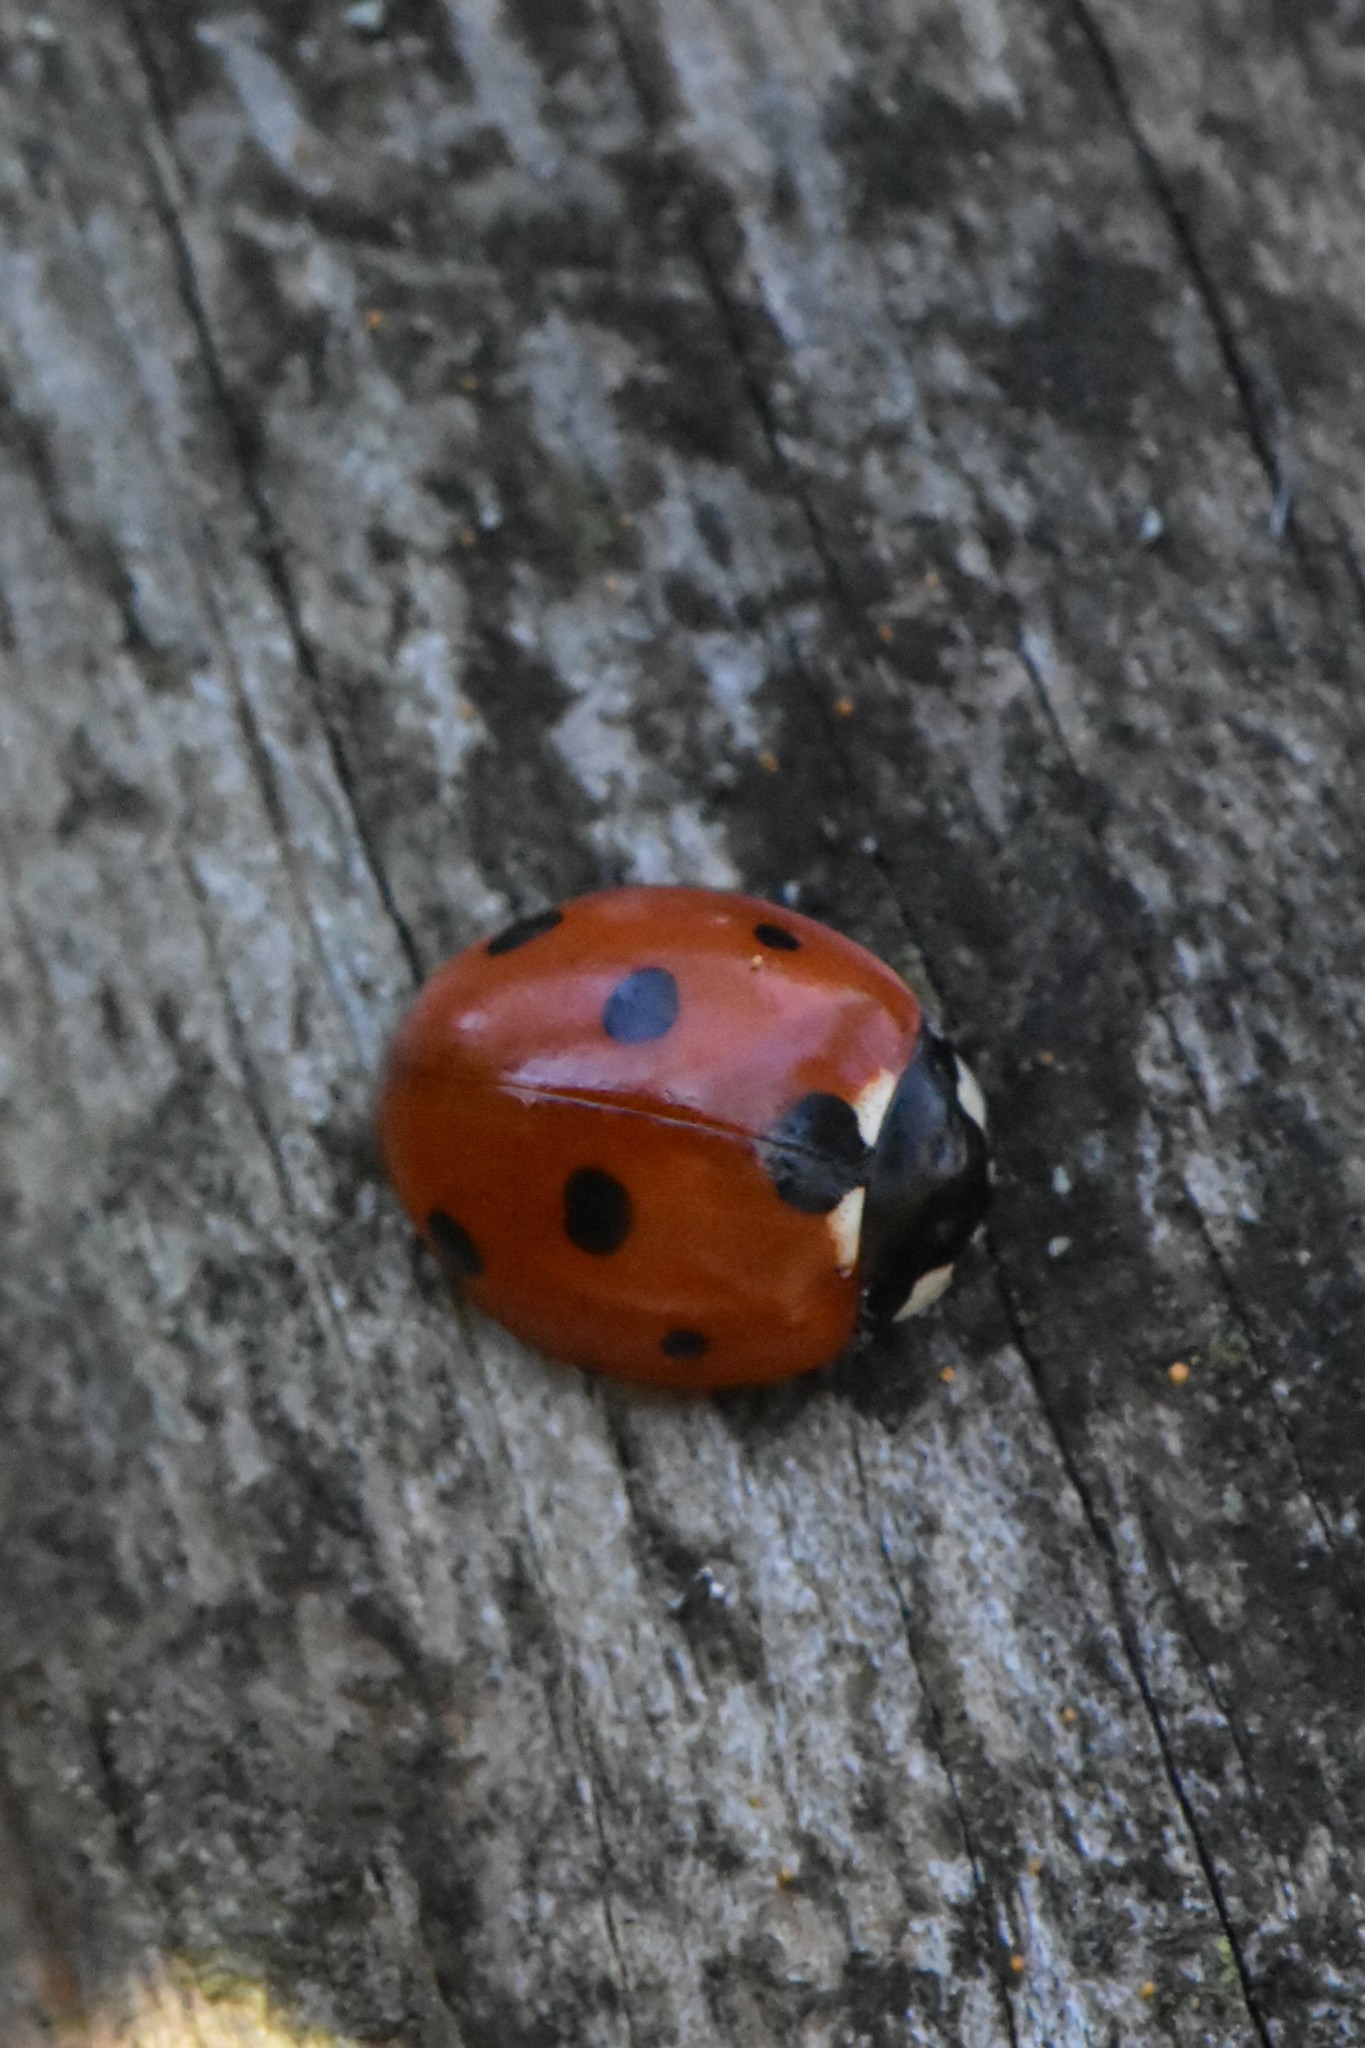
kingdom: Animalia
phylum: Arthropoda
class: Insecta
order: Coleoptera
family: Coccinellidae
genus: Coccinella
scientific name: Coccinella septempunctata
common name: Sevenspotted lady beetle
